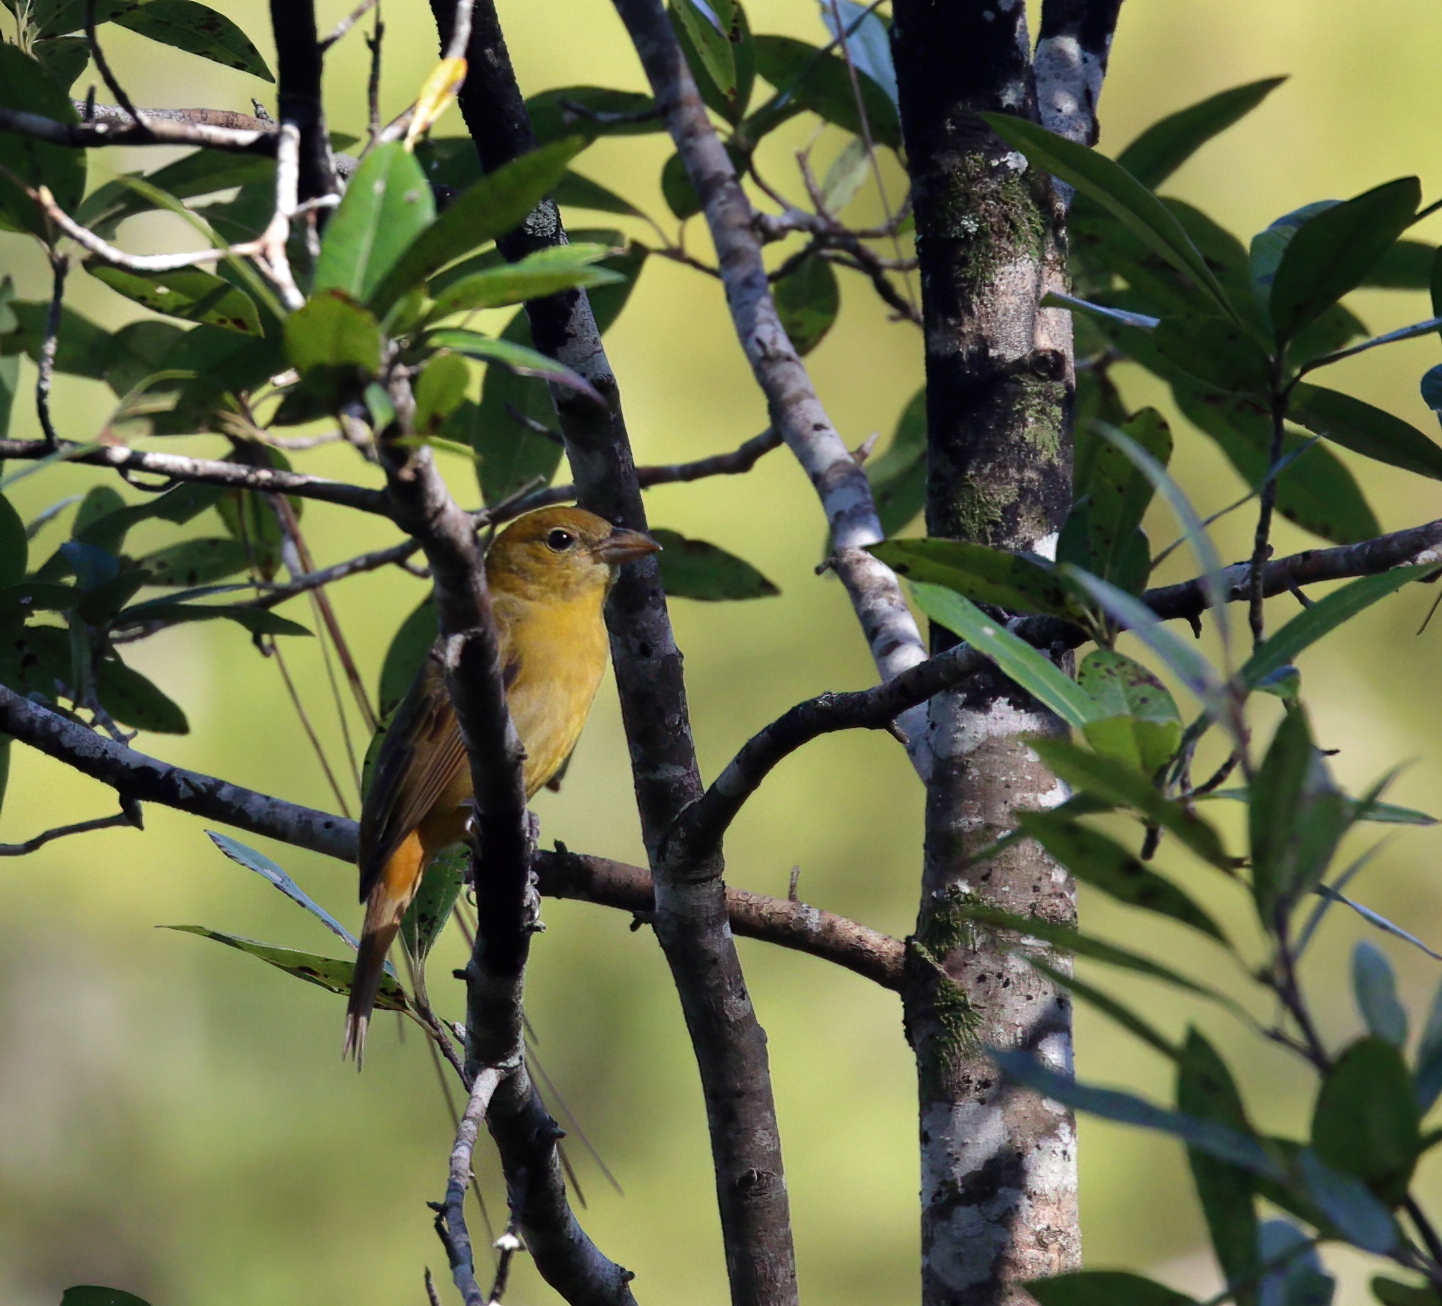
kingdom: Animalia
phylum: Chordata
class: Aves
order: Passeriformes
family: Cardinalidae
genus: Piranga
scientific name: Piranga rubra
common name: Summer tanager
